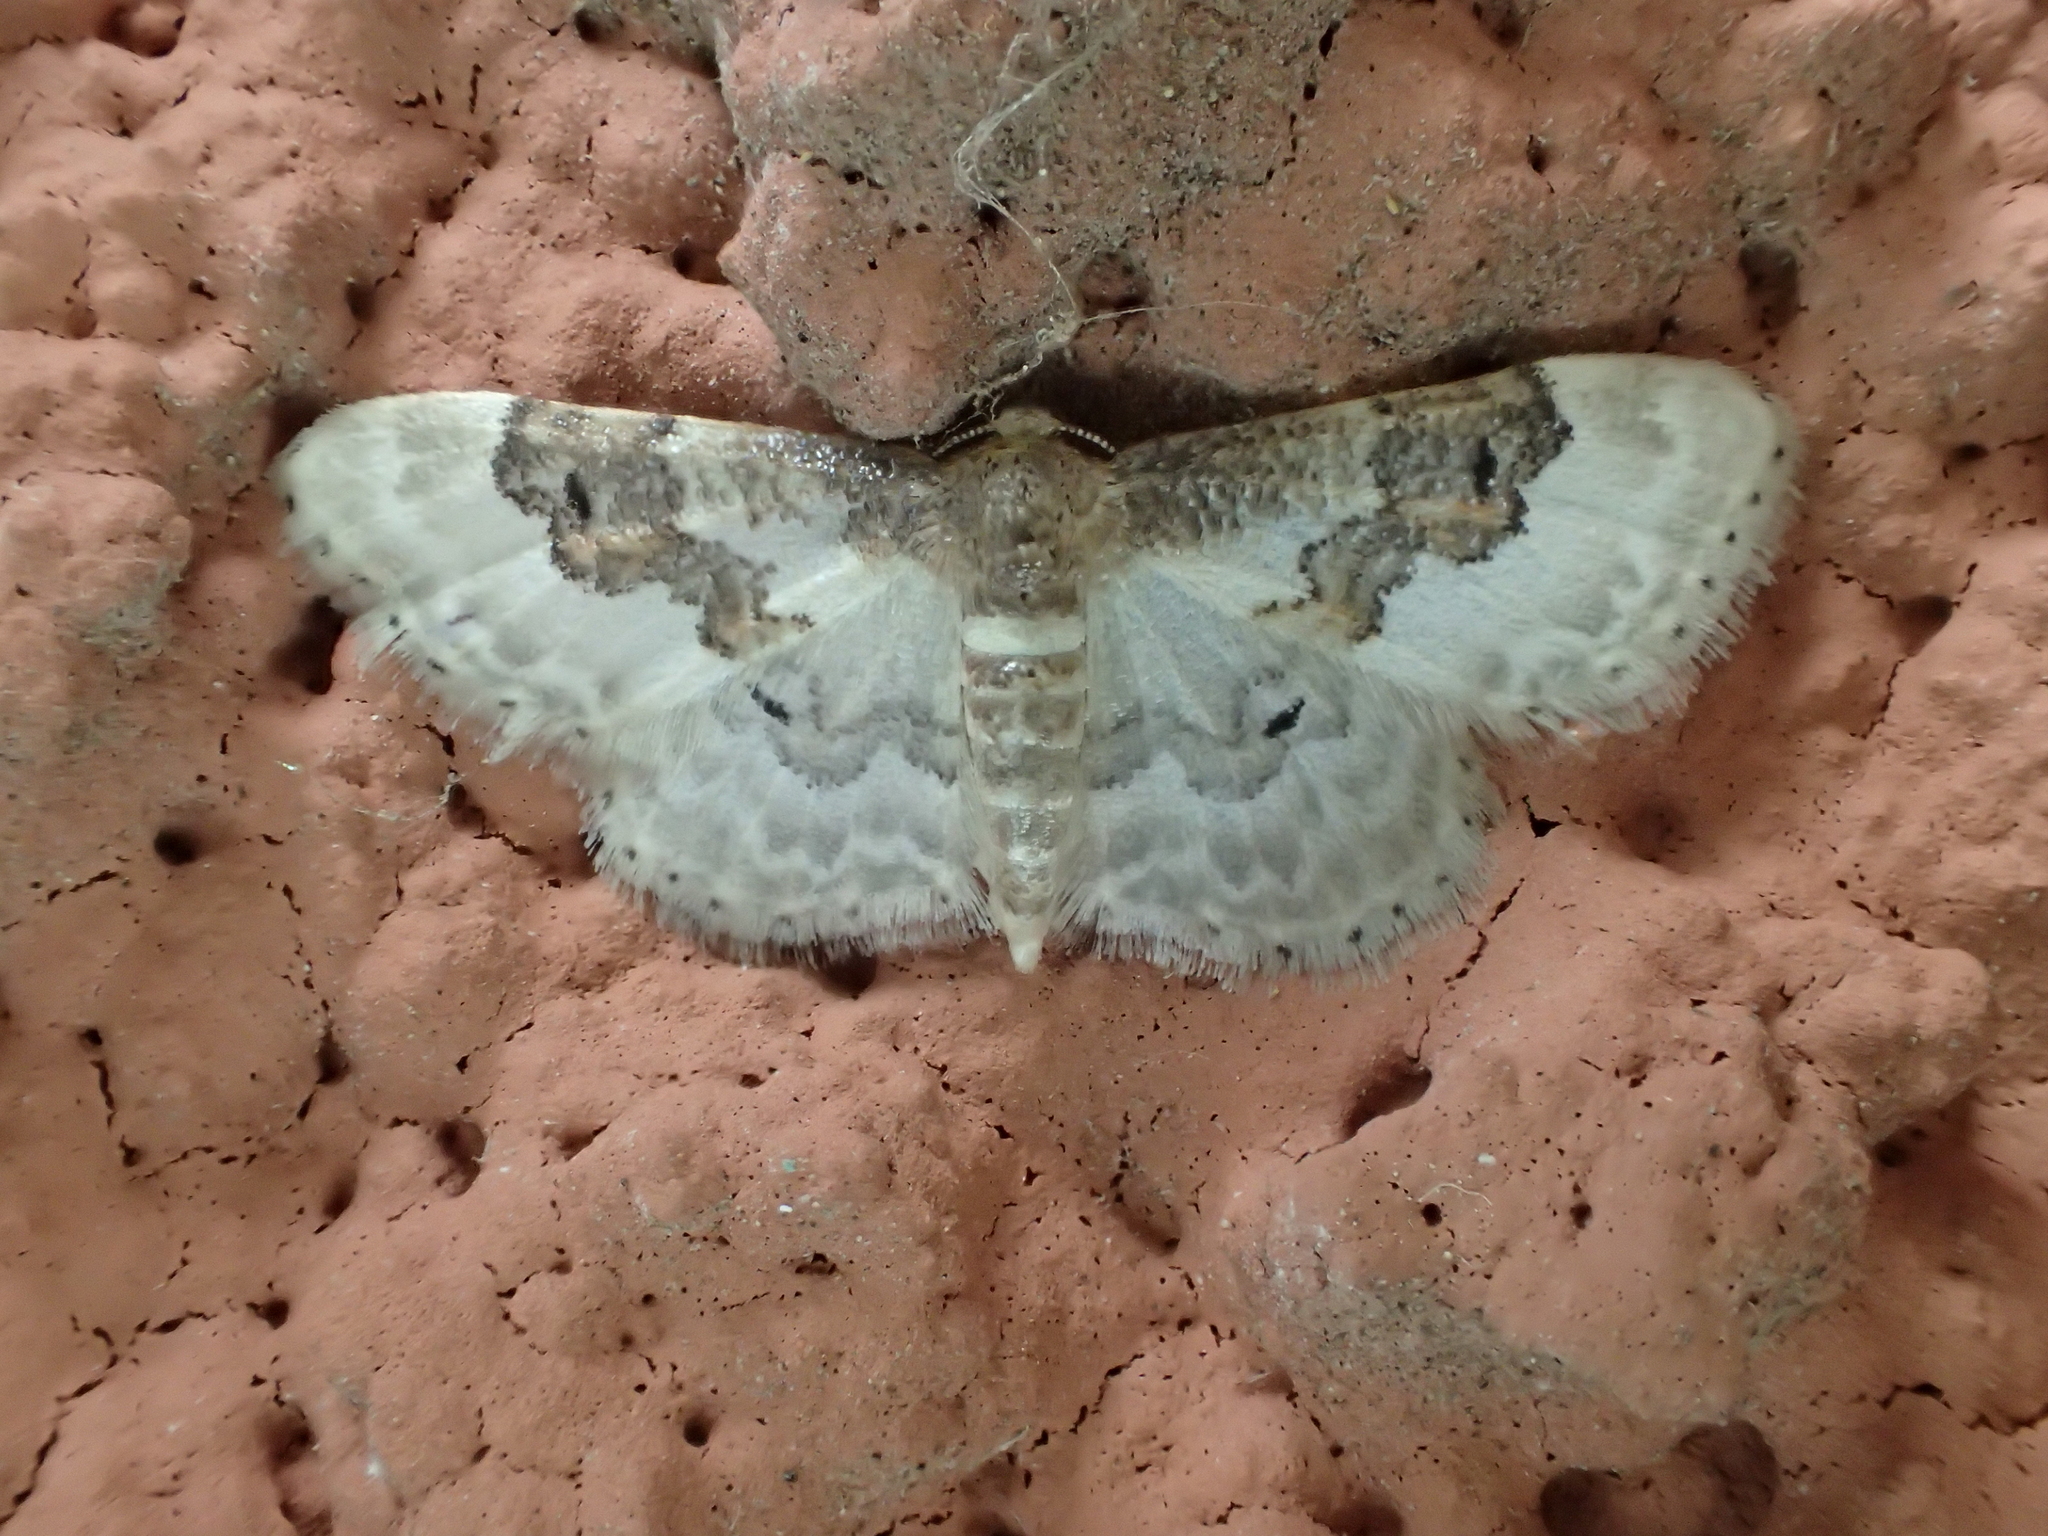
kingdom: Animalia
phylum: Arthropoda
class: Insecta
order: Lepidoptera
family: Geometridae
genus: Idaea
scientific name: Idaea rusticata
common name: Least carpet
